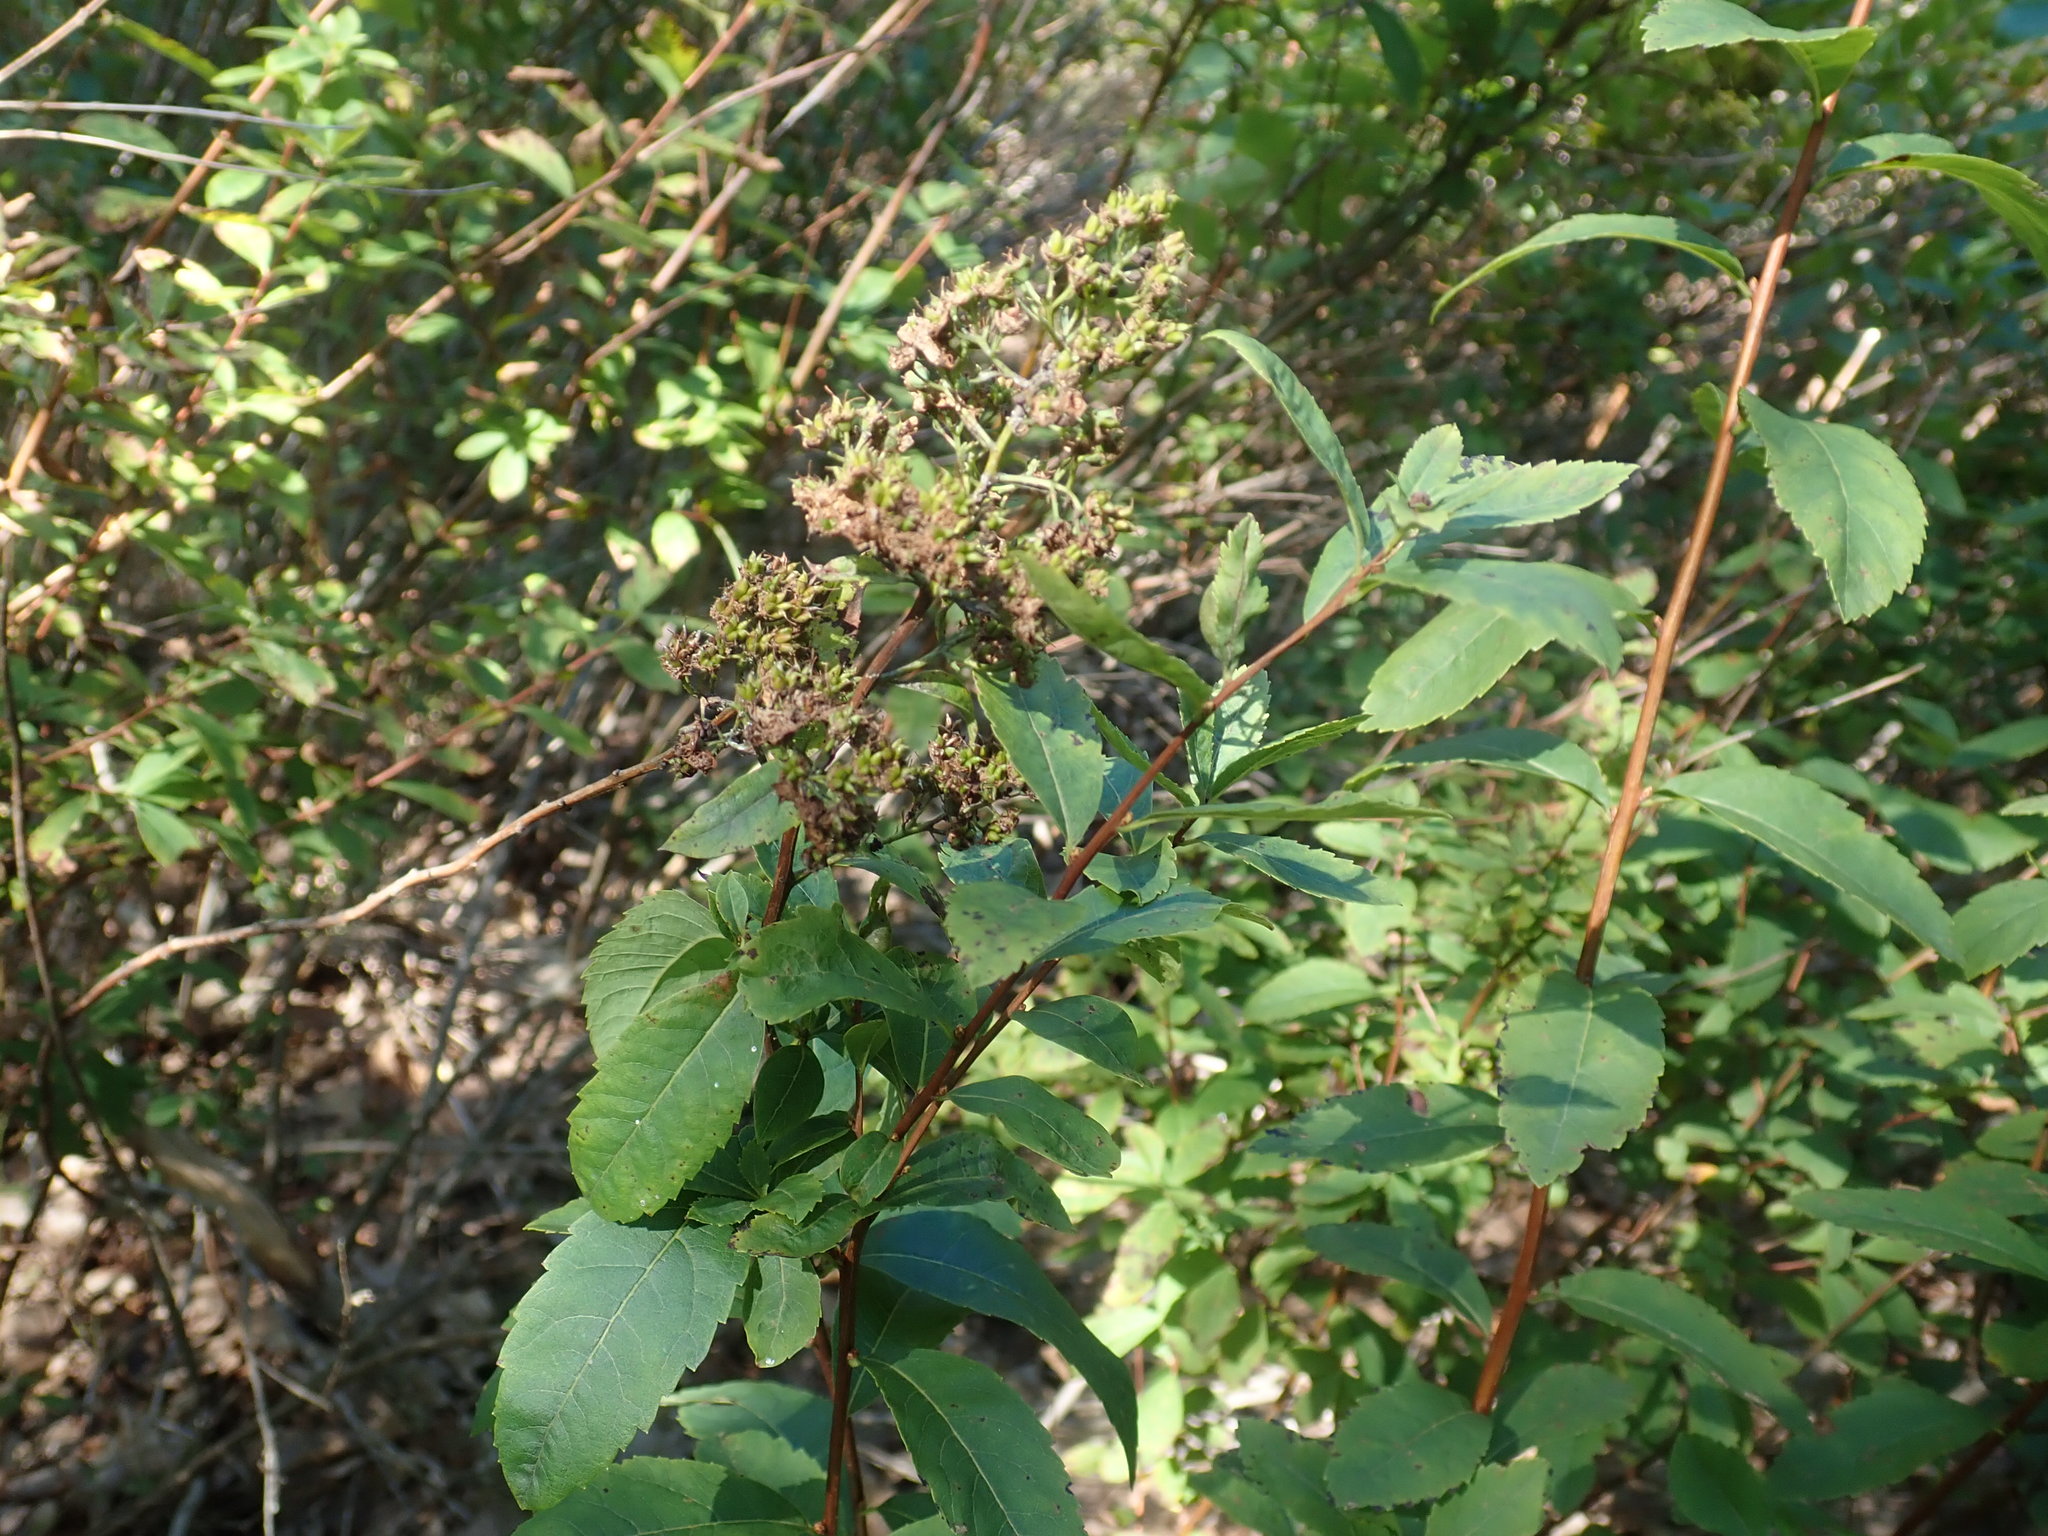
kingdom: Plantae
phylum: Tracheophyta
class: Magnoliopsida
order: Rosales
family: Rosaceae
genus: Spiraea
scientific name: Spiraea alba
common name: Pale bridewort
